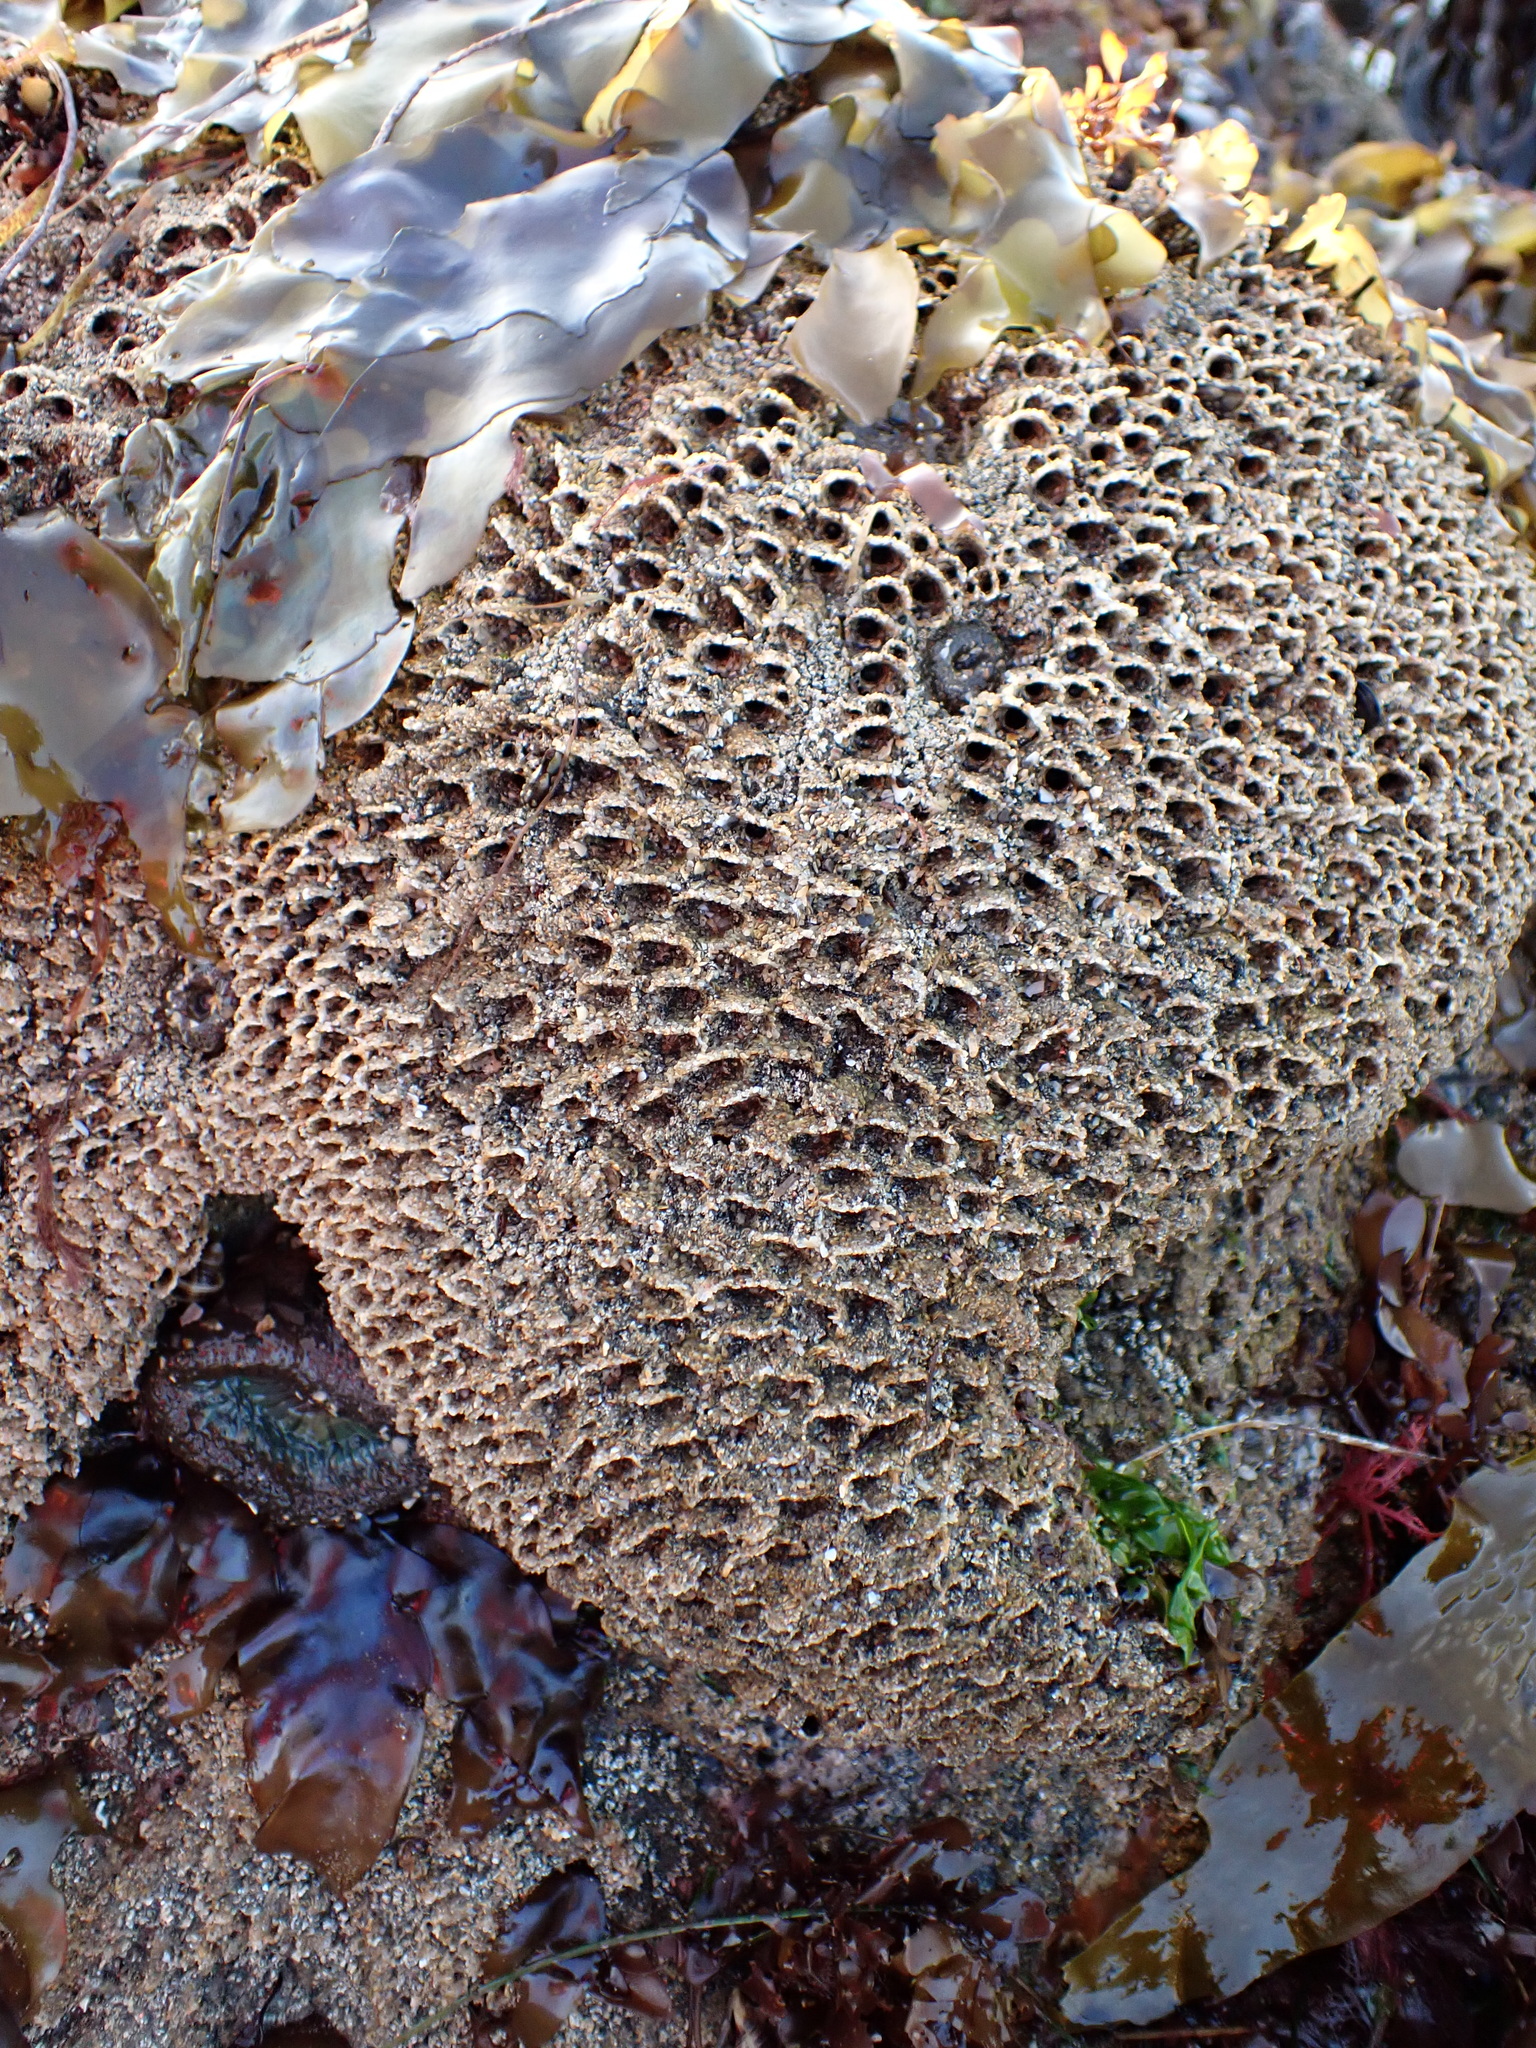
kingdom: Animalia
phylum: Annelida
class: Polychaeta
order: Sabellida
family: Sabellariidae
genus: Phragmatopoma
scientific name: Phragmatopoma californica
